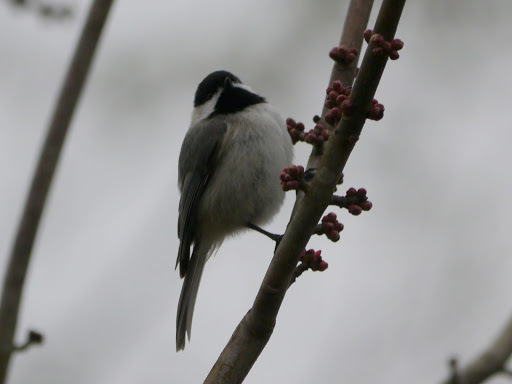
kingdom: Animalia
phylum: Chordata
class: Aves
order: Passeriformes
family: Paridae
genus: Poecile
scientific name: Poecile carolinensis
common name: Carolina chickadee
